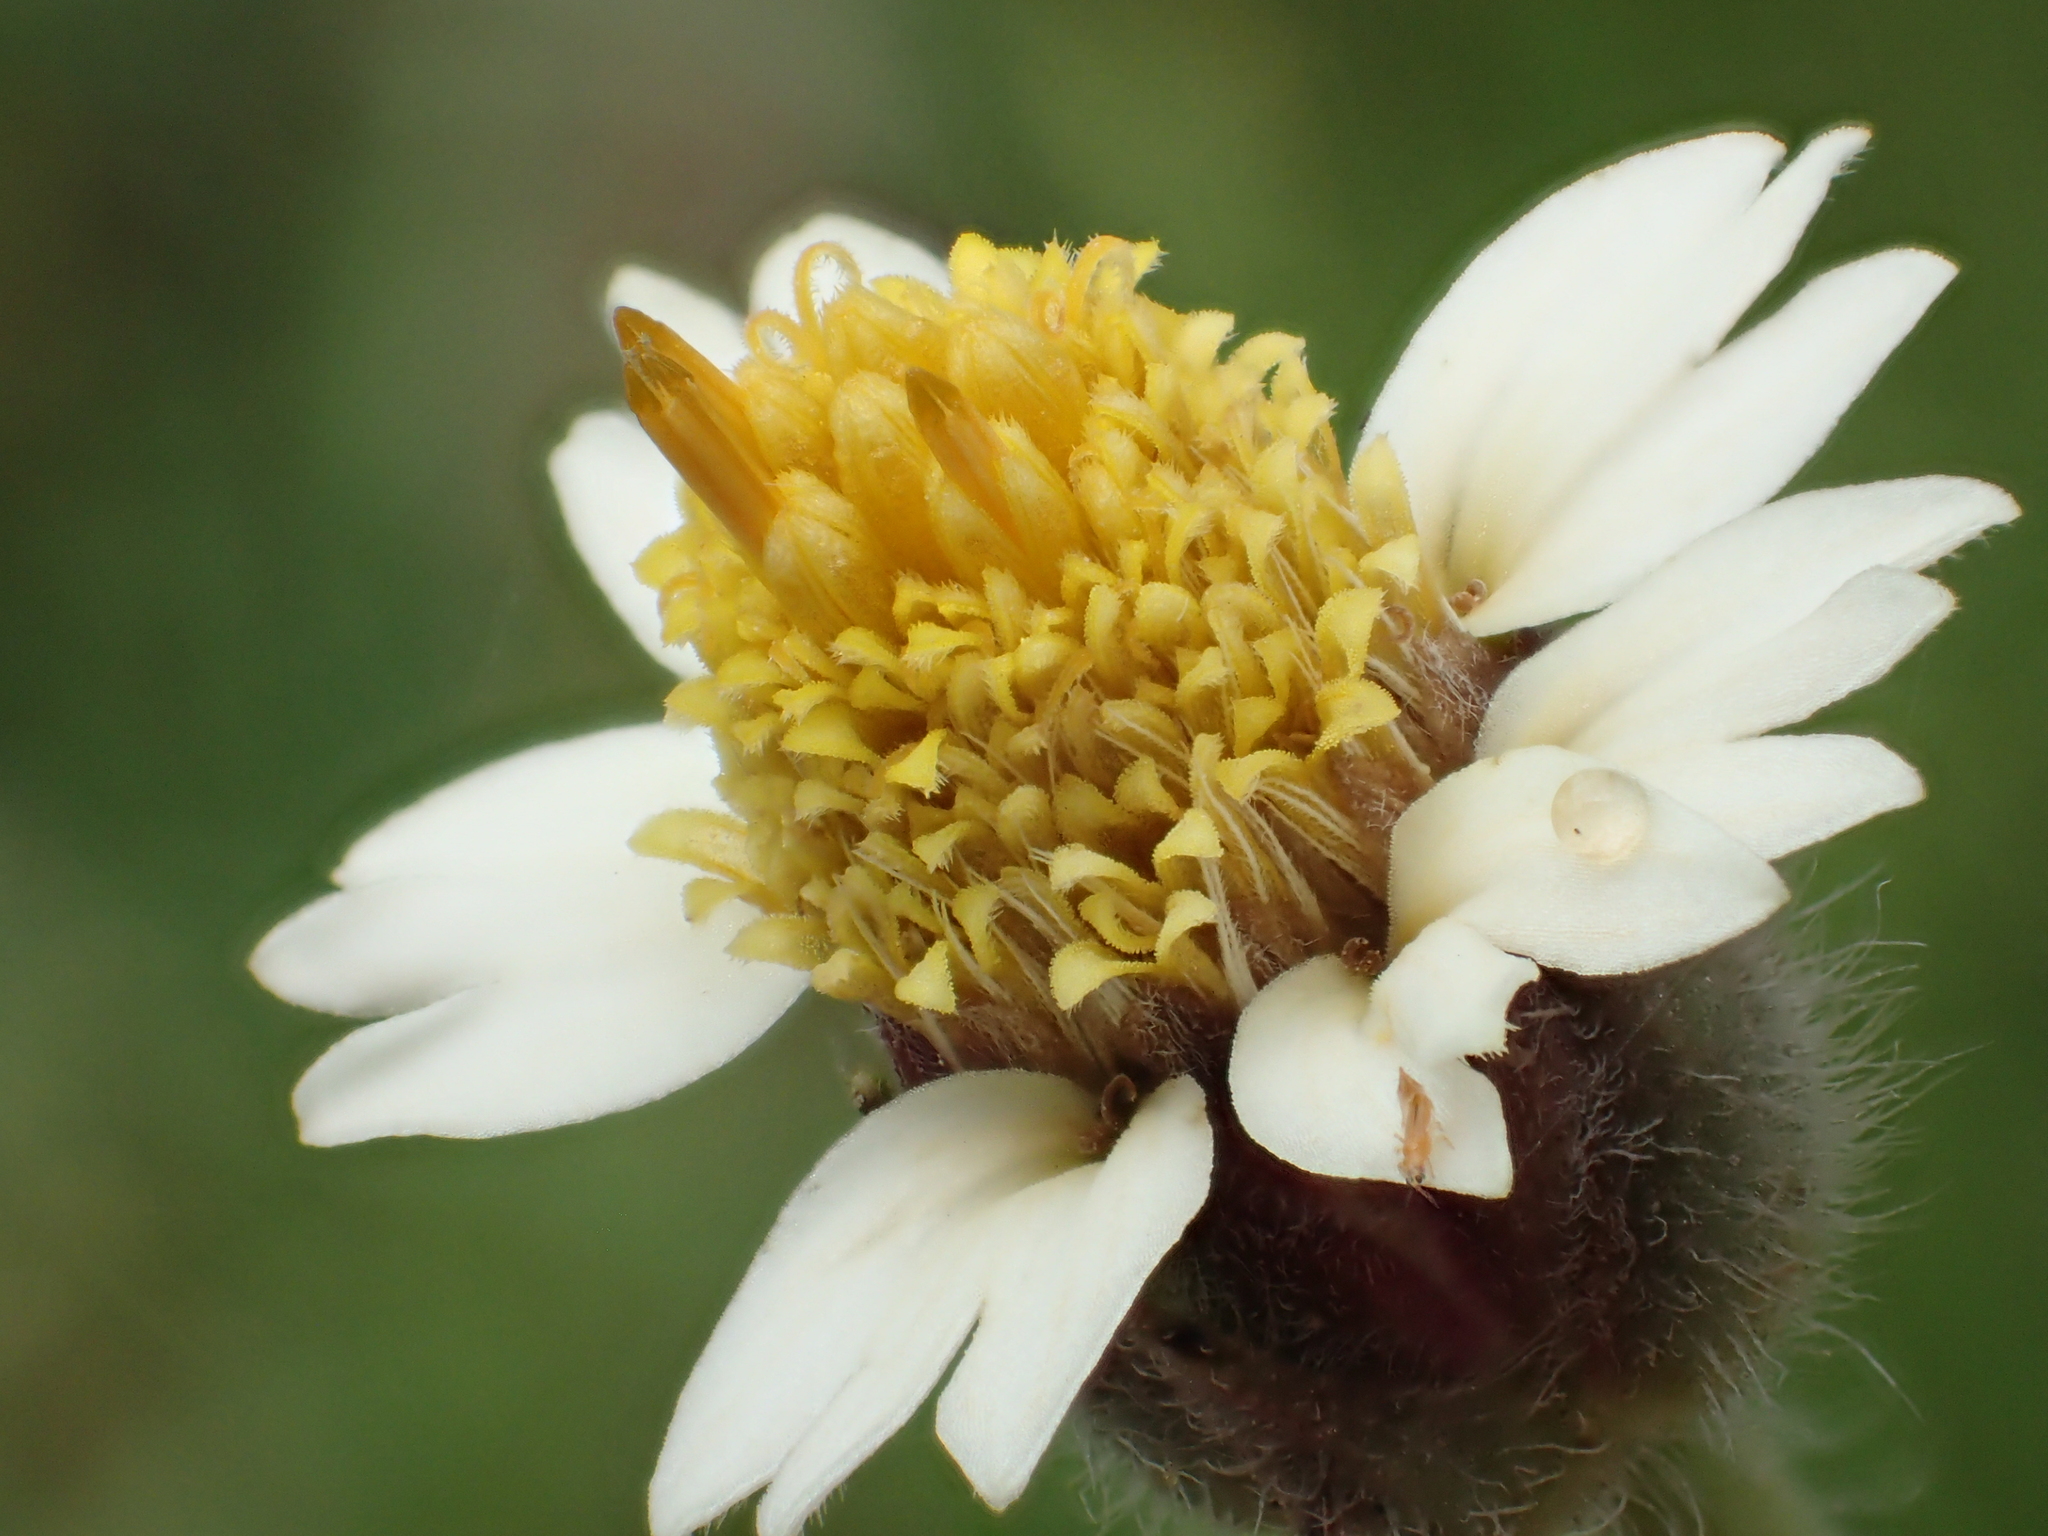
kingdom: Plantae
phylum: Tracheophyta
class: Magnoliopsida
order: Asterales
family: Asteraceae
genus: Tridax
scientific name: Tridax procumbens
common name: Coatbuttons
